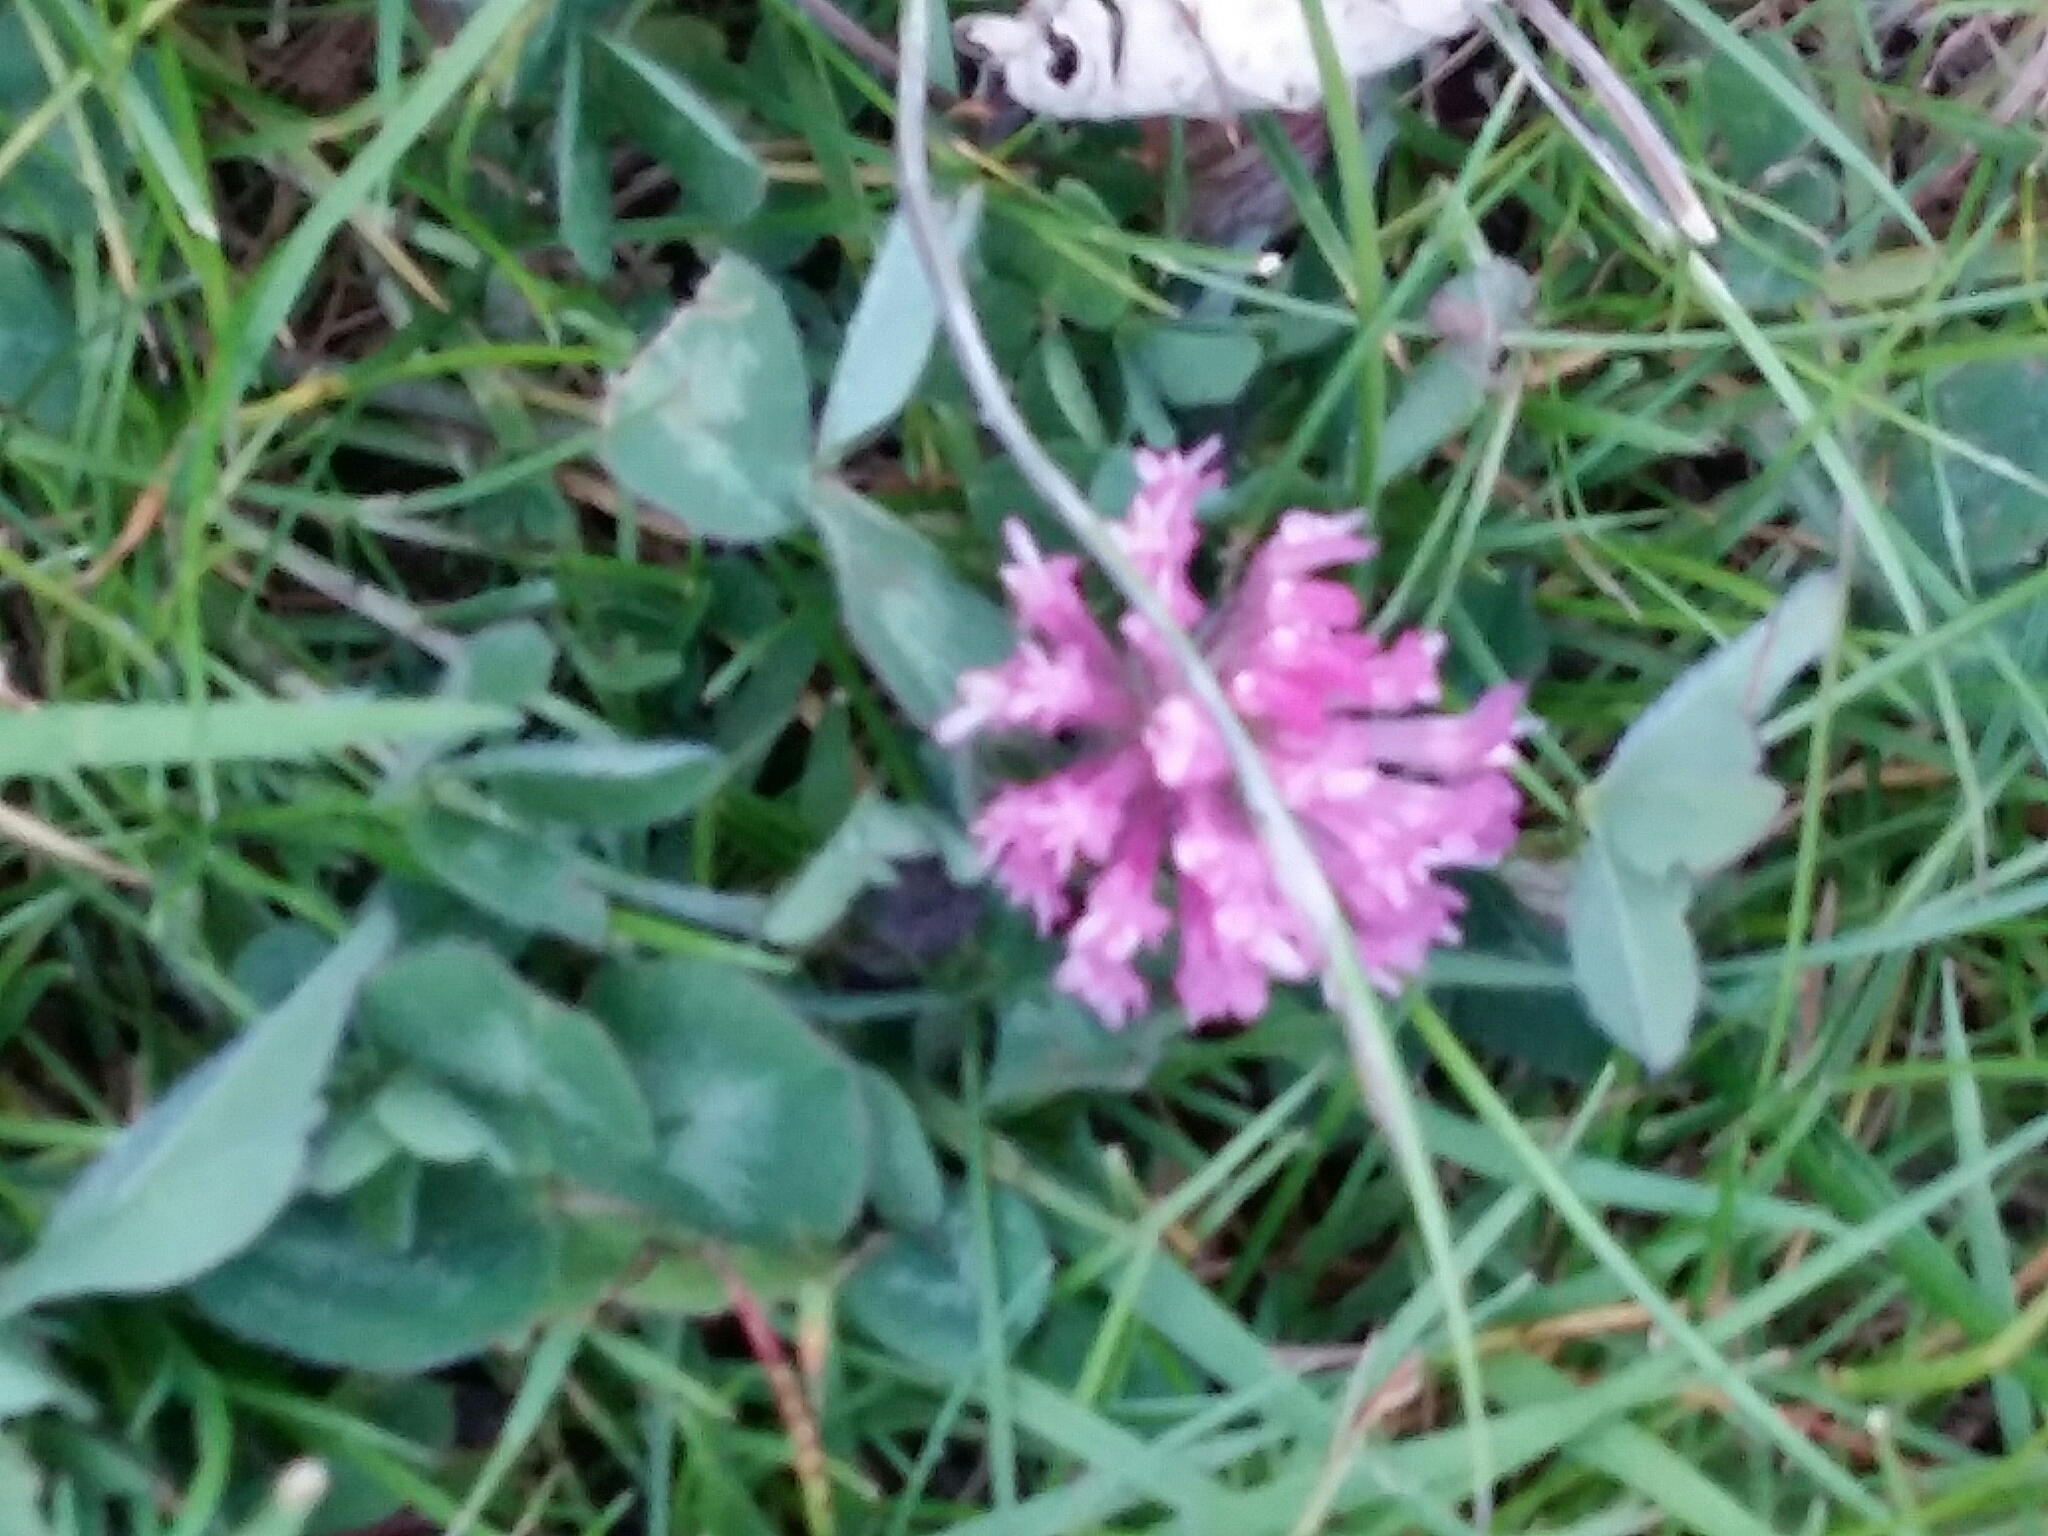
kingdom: Plantae
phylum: Tracheophyta
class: Magnoliopsida
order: Fabales
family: Fabaceae
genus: Trifolium
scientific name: Trifolium pratense
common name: Red clover
